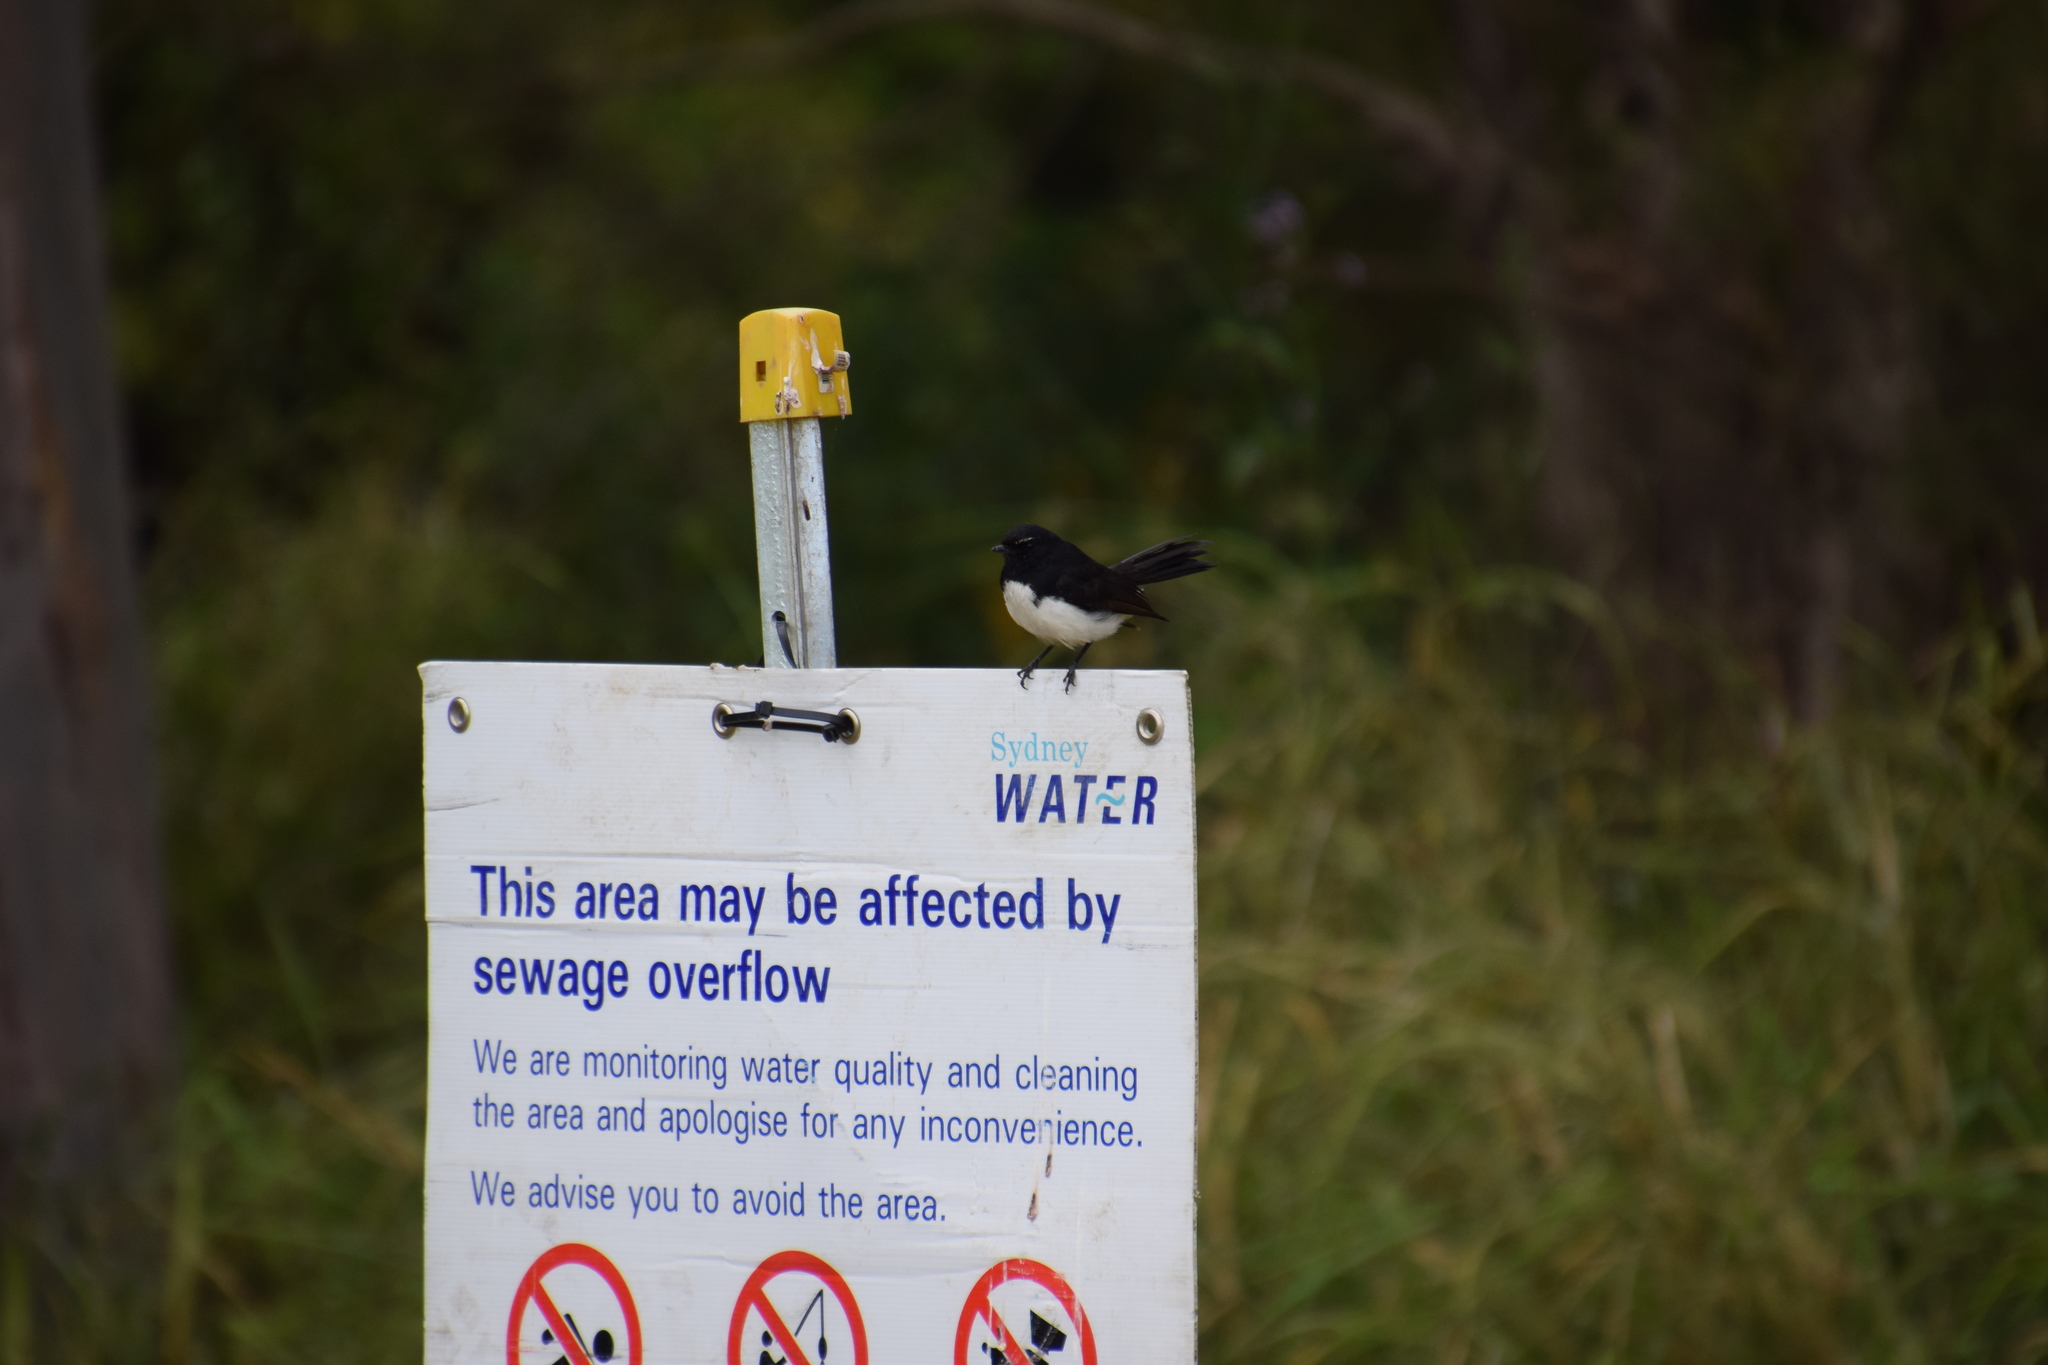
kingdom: Animalia
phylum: Chordata
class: Aves
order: Passeriformes
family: Rhipiduridae
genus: Rhipidura
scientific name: Rhipidura leucophrys
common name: Willie wagtail
